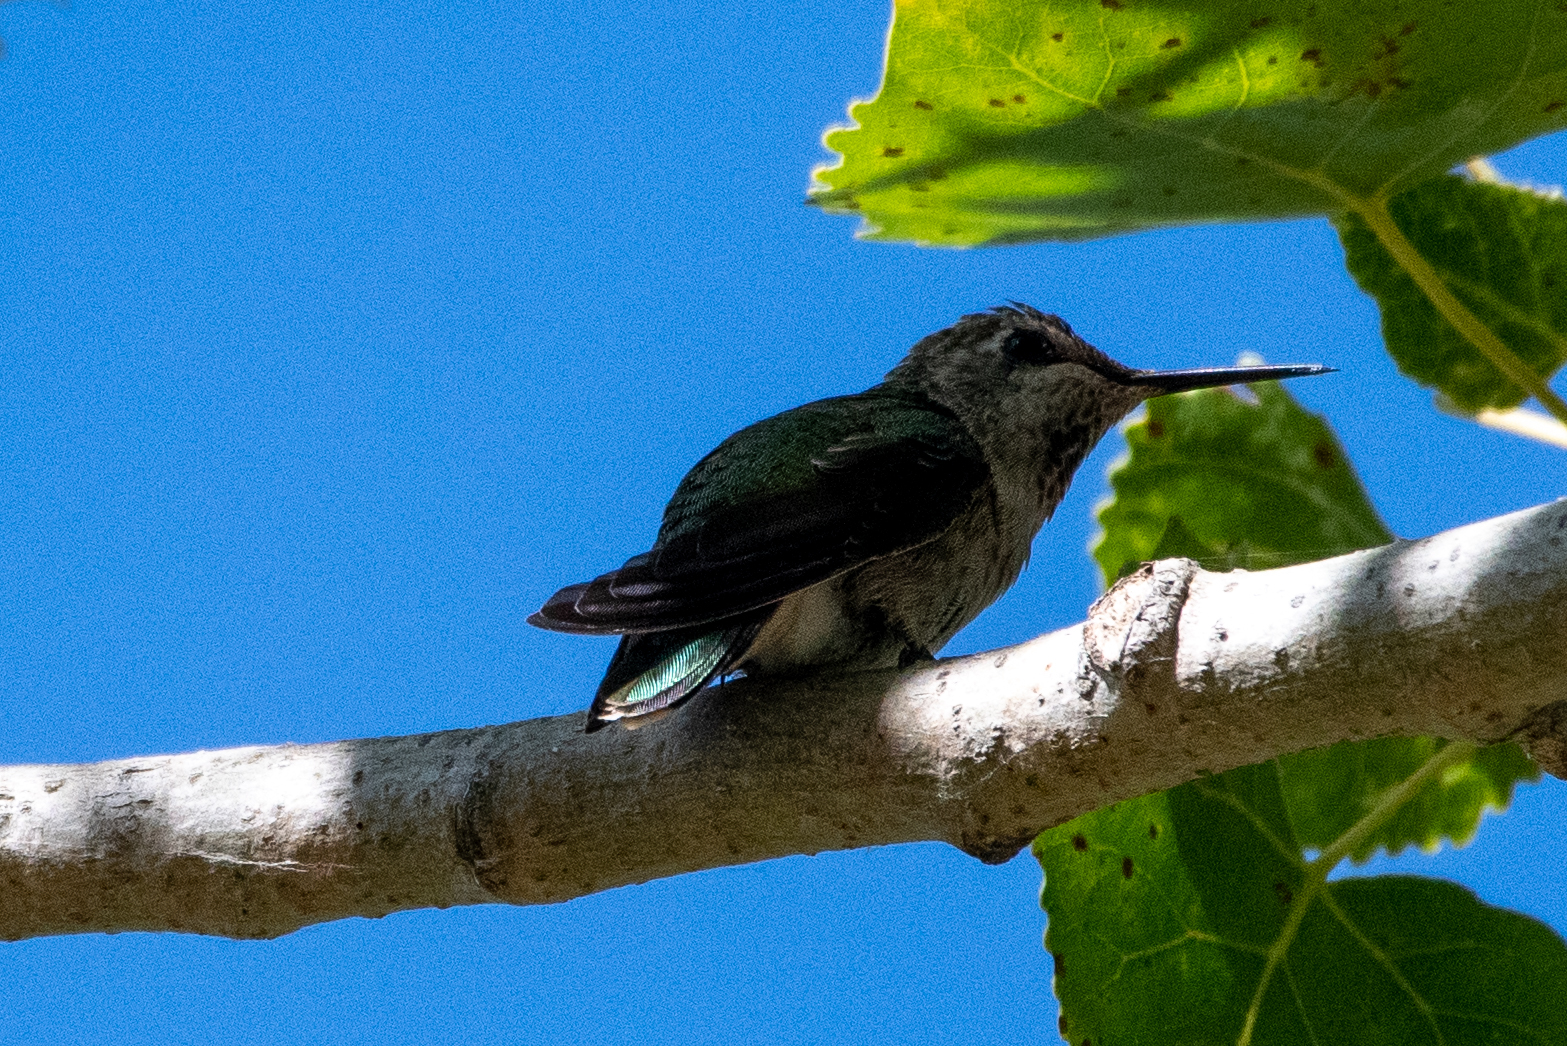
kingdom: Animalia
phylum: Chordata
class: Aves
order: Apodiformes
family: Trochilidae
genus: Calypte
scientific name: Calypte anna
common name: Anna's hummingbird
